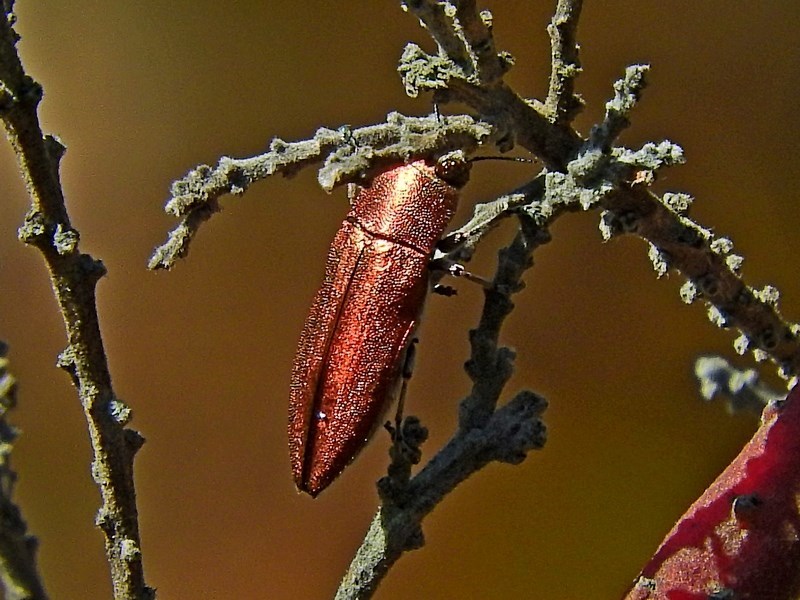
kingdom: Animalia
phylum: Arthropoda
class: Insecta
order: Coleoptera
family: Buprestidae
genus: Melobasis
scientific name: Melobasis propinqua
